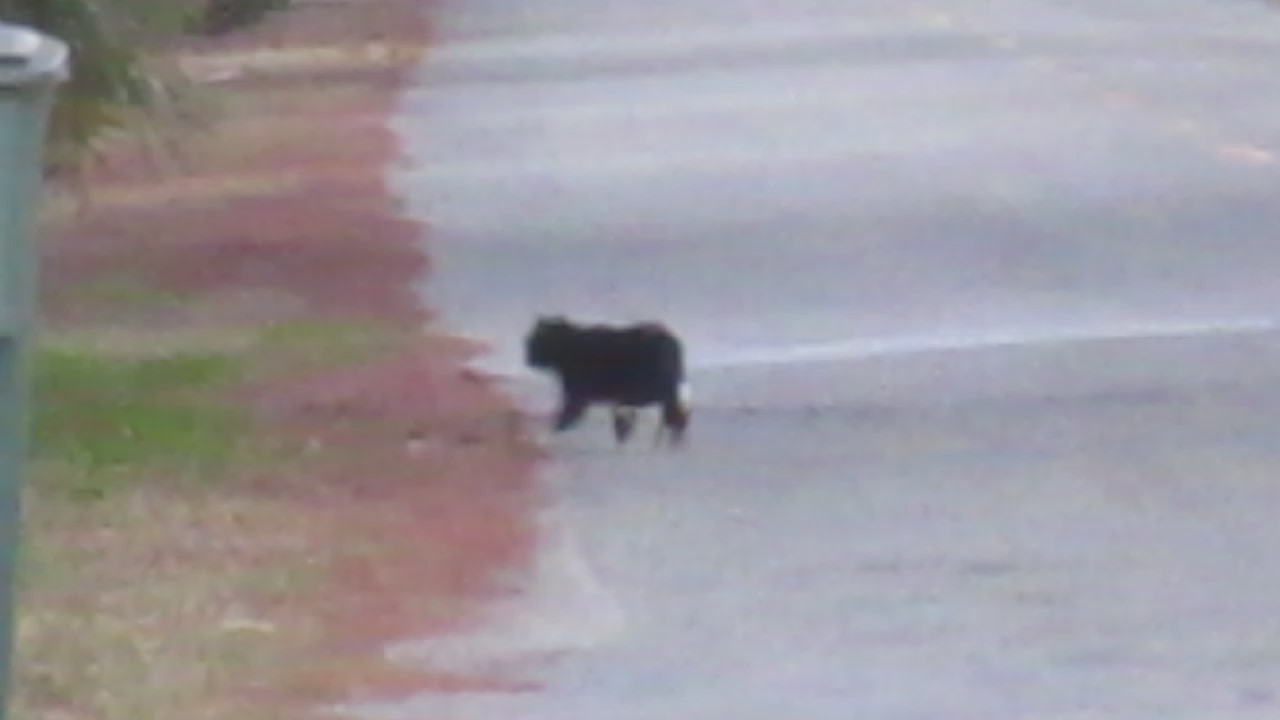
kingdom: Animalia
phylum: Chordata
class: Mammalia
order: Carnivora
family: Felidae
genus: Felis
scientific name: Felis catus
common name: Domestic cat
